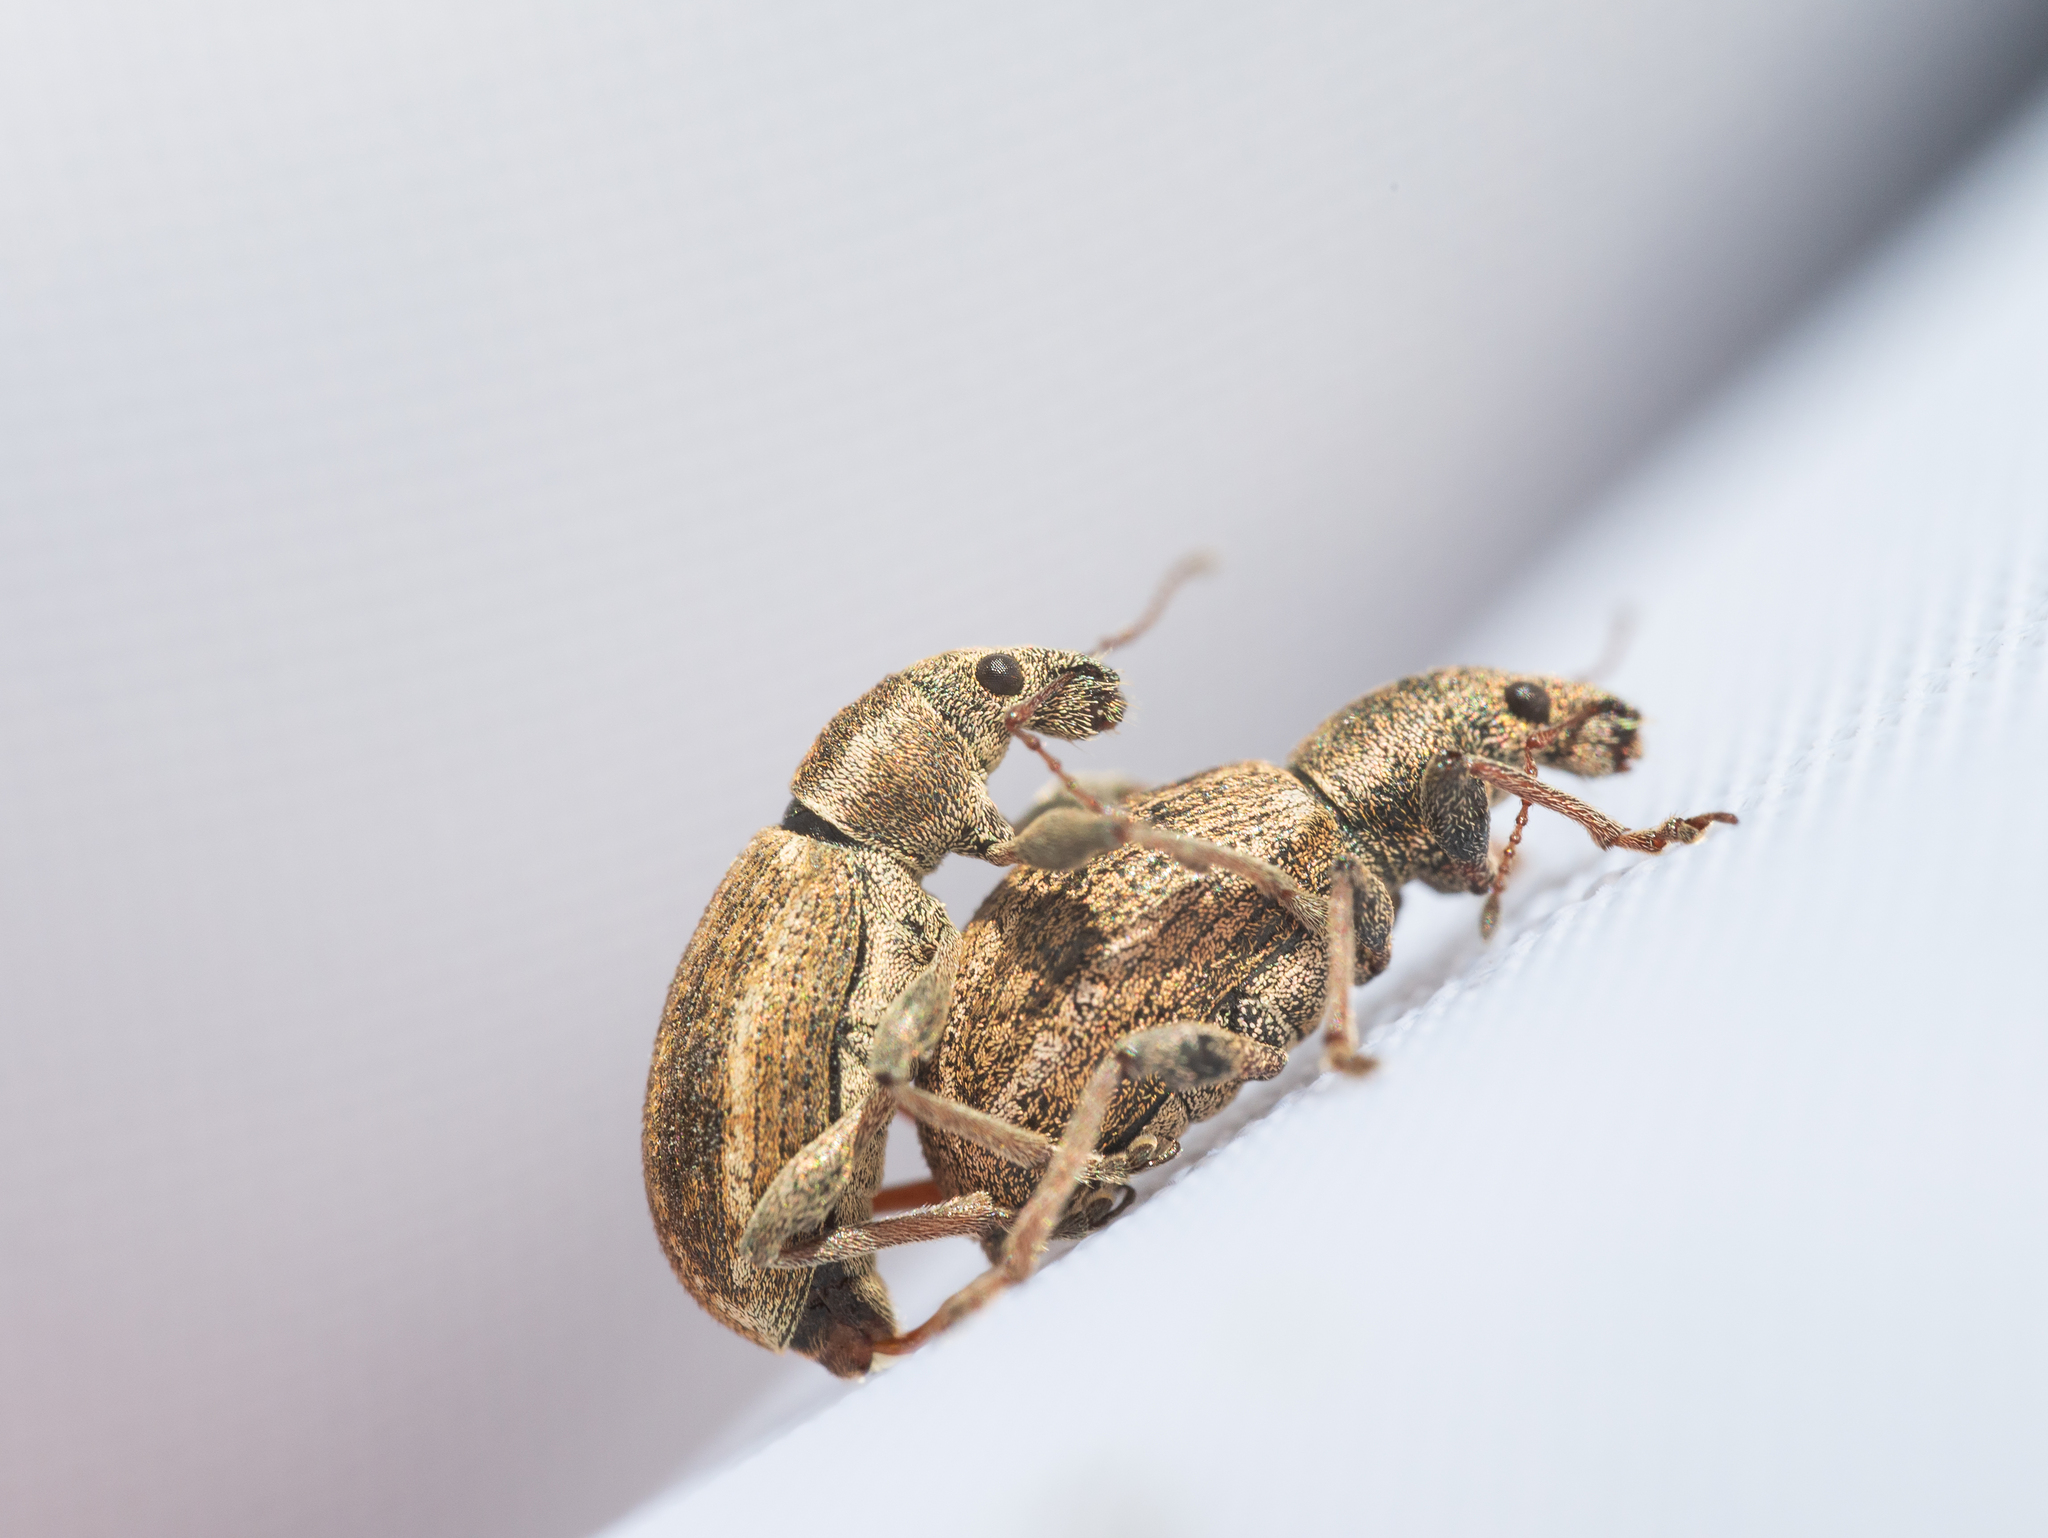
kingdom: Animalia
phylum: Arthropoda
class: Insecta
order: Coleoptera
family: Curculionidae
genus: Polydrusus
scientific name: Polydrusus confluens
